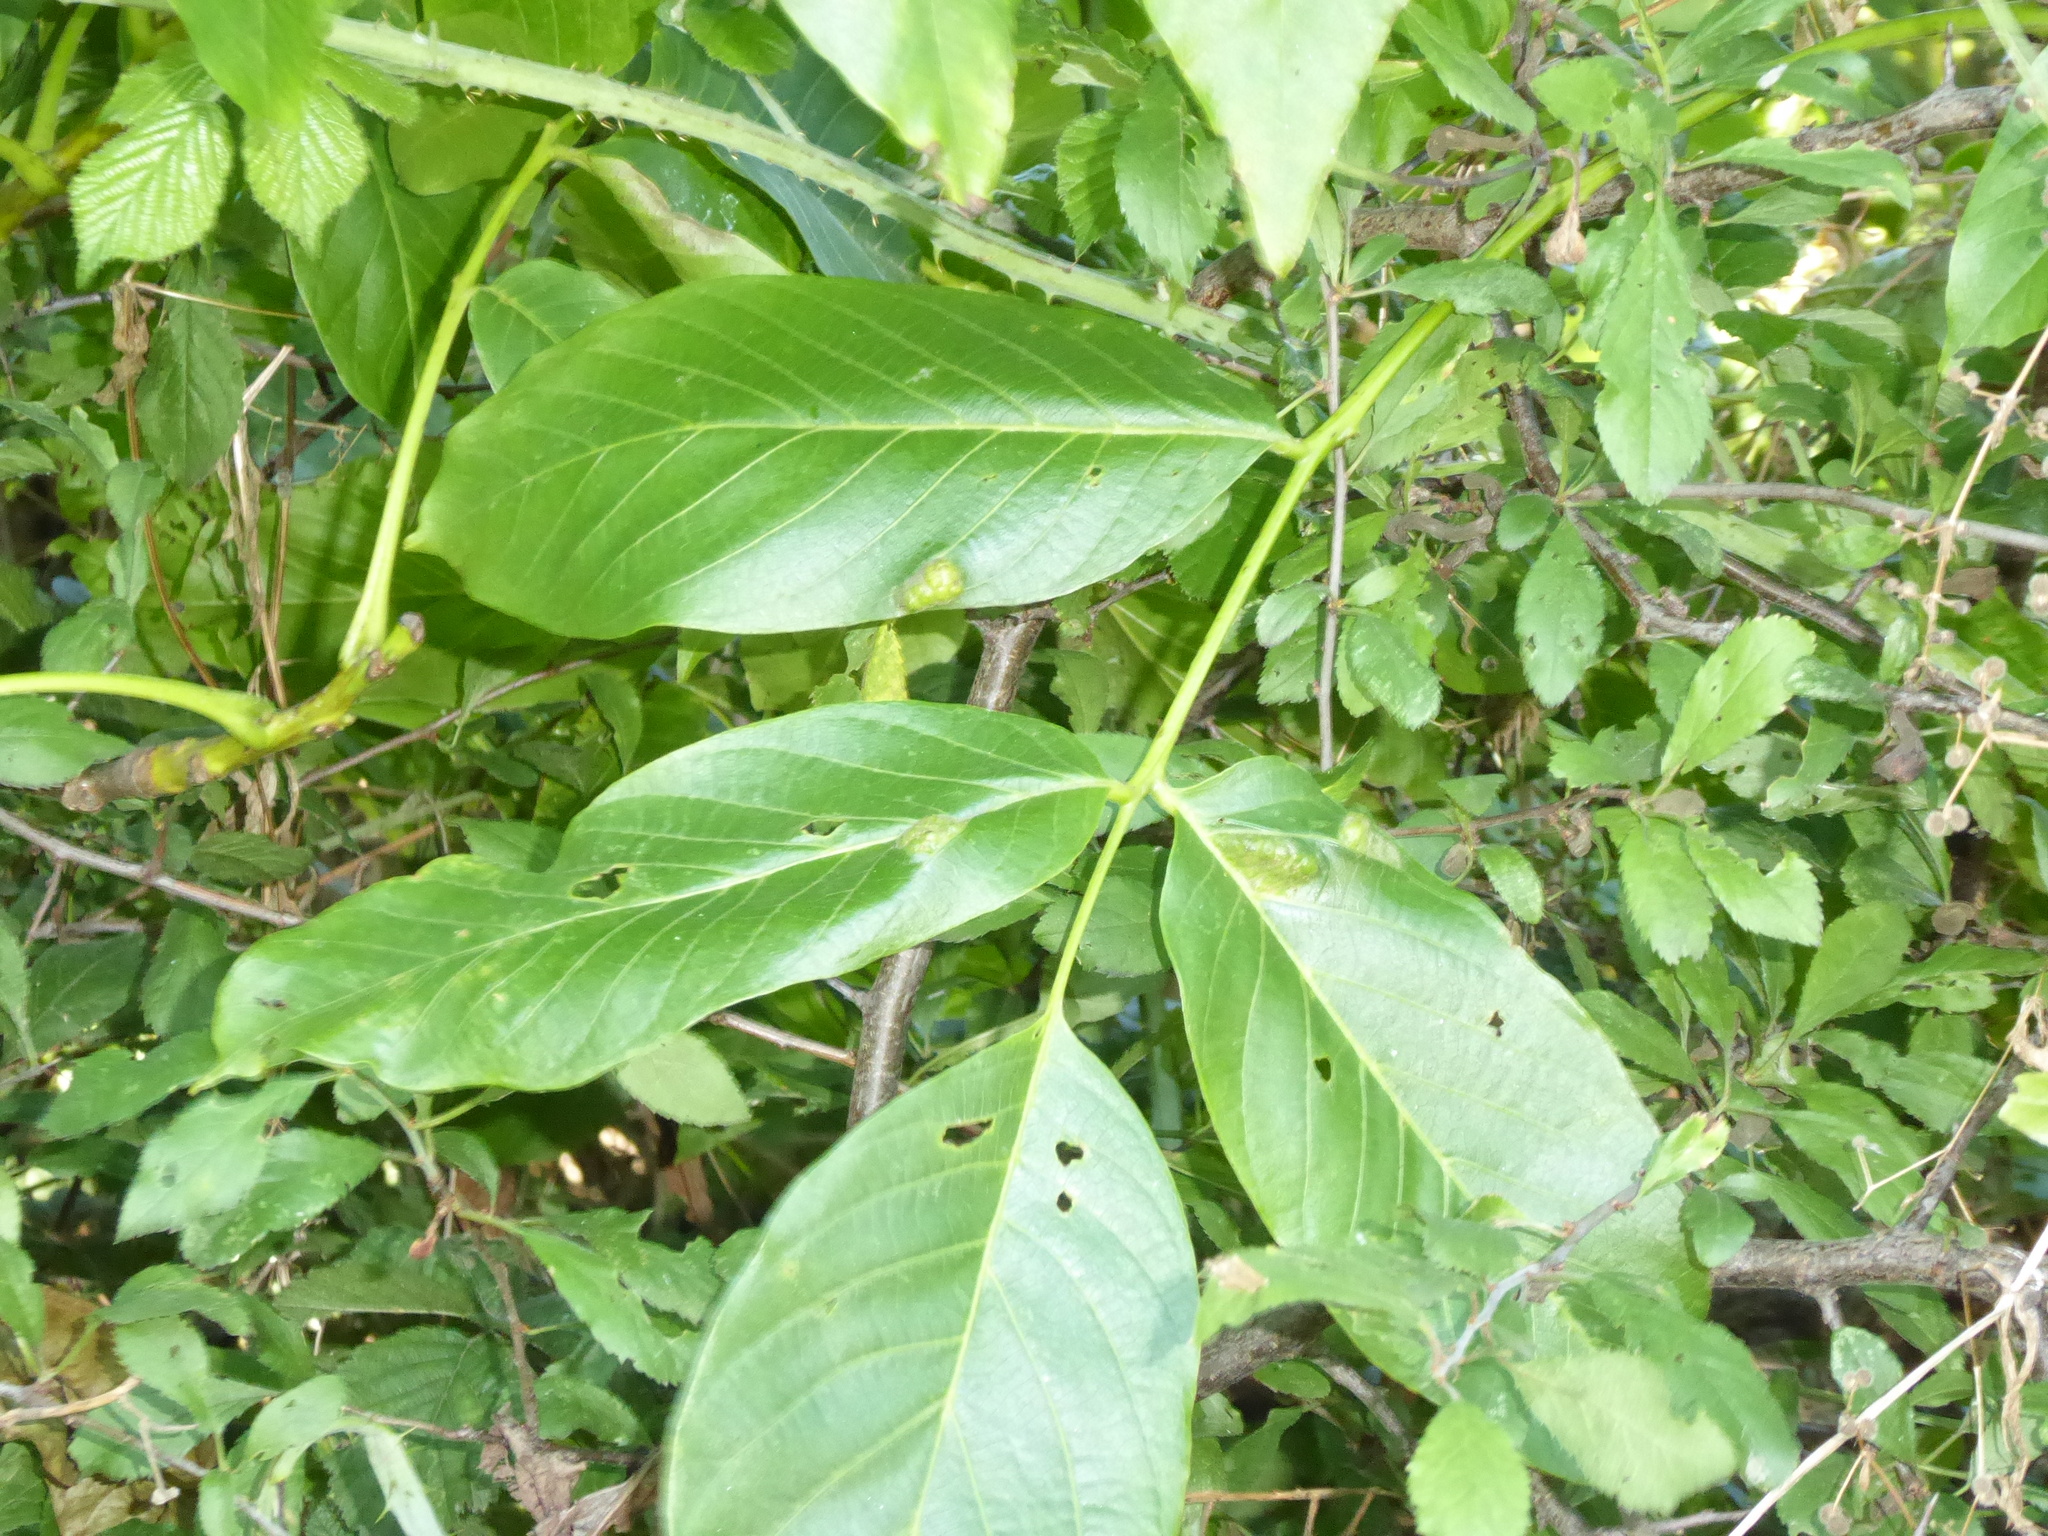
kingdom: Animalia
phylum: Arthropoda
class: Arachnida
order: Trombidiformes
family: Eriophyidae
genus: Aceria
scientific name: Aceria erinea
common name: Persian walnut erineum mite
